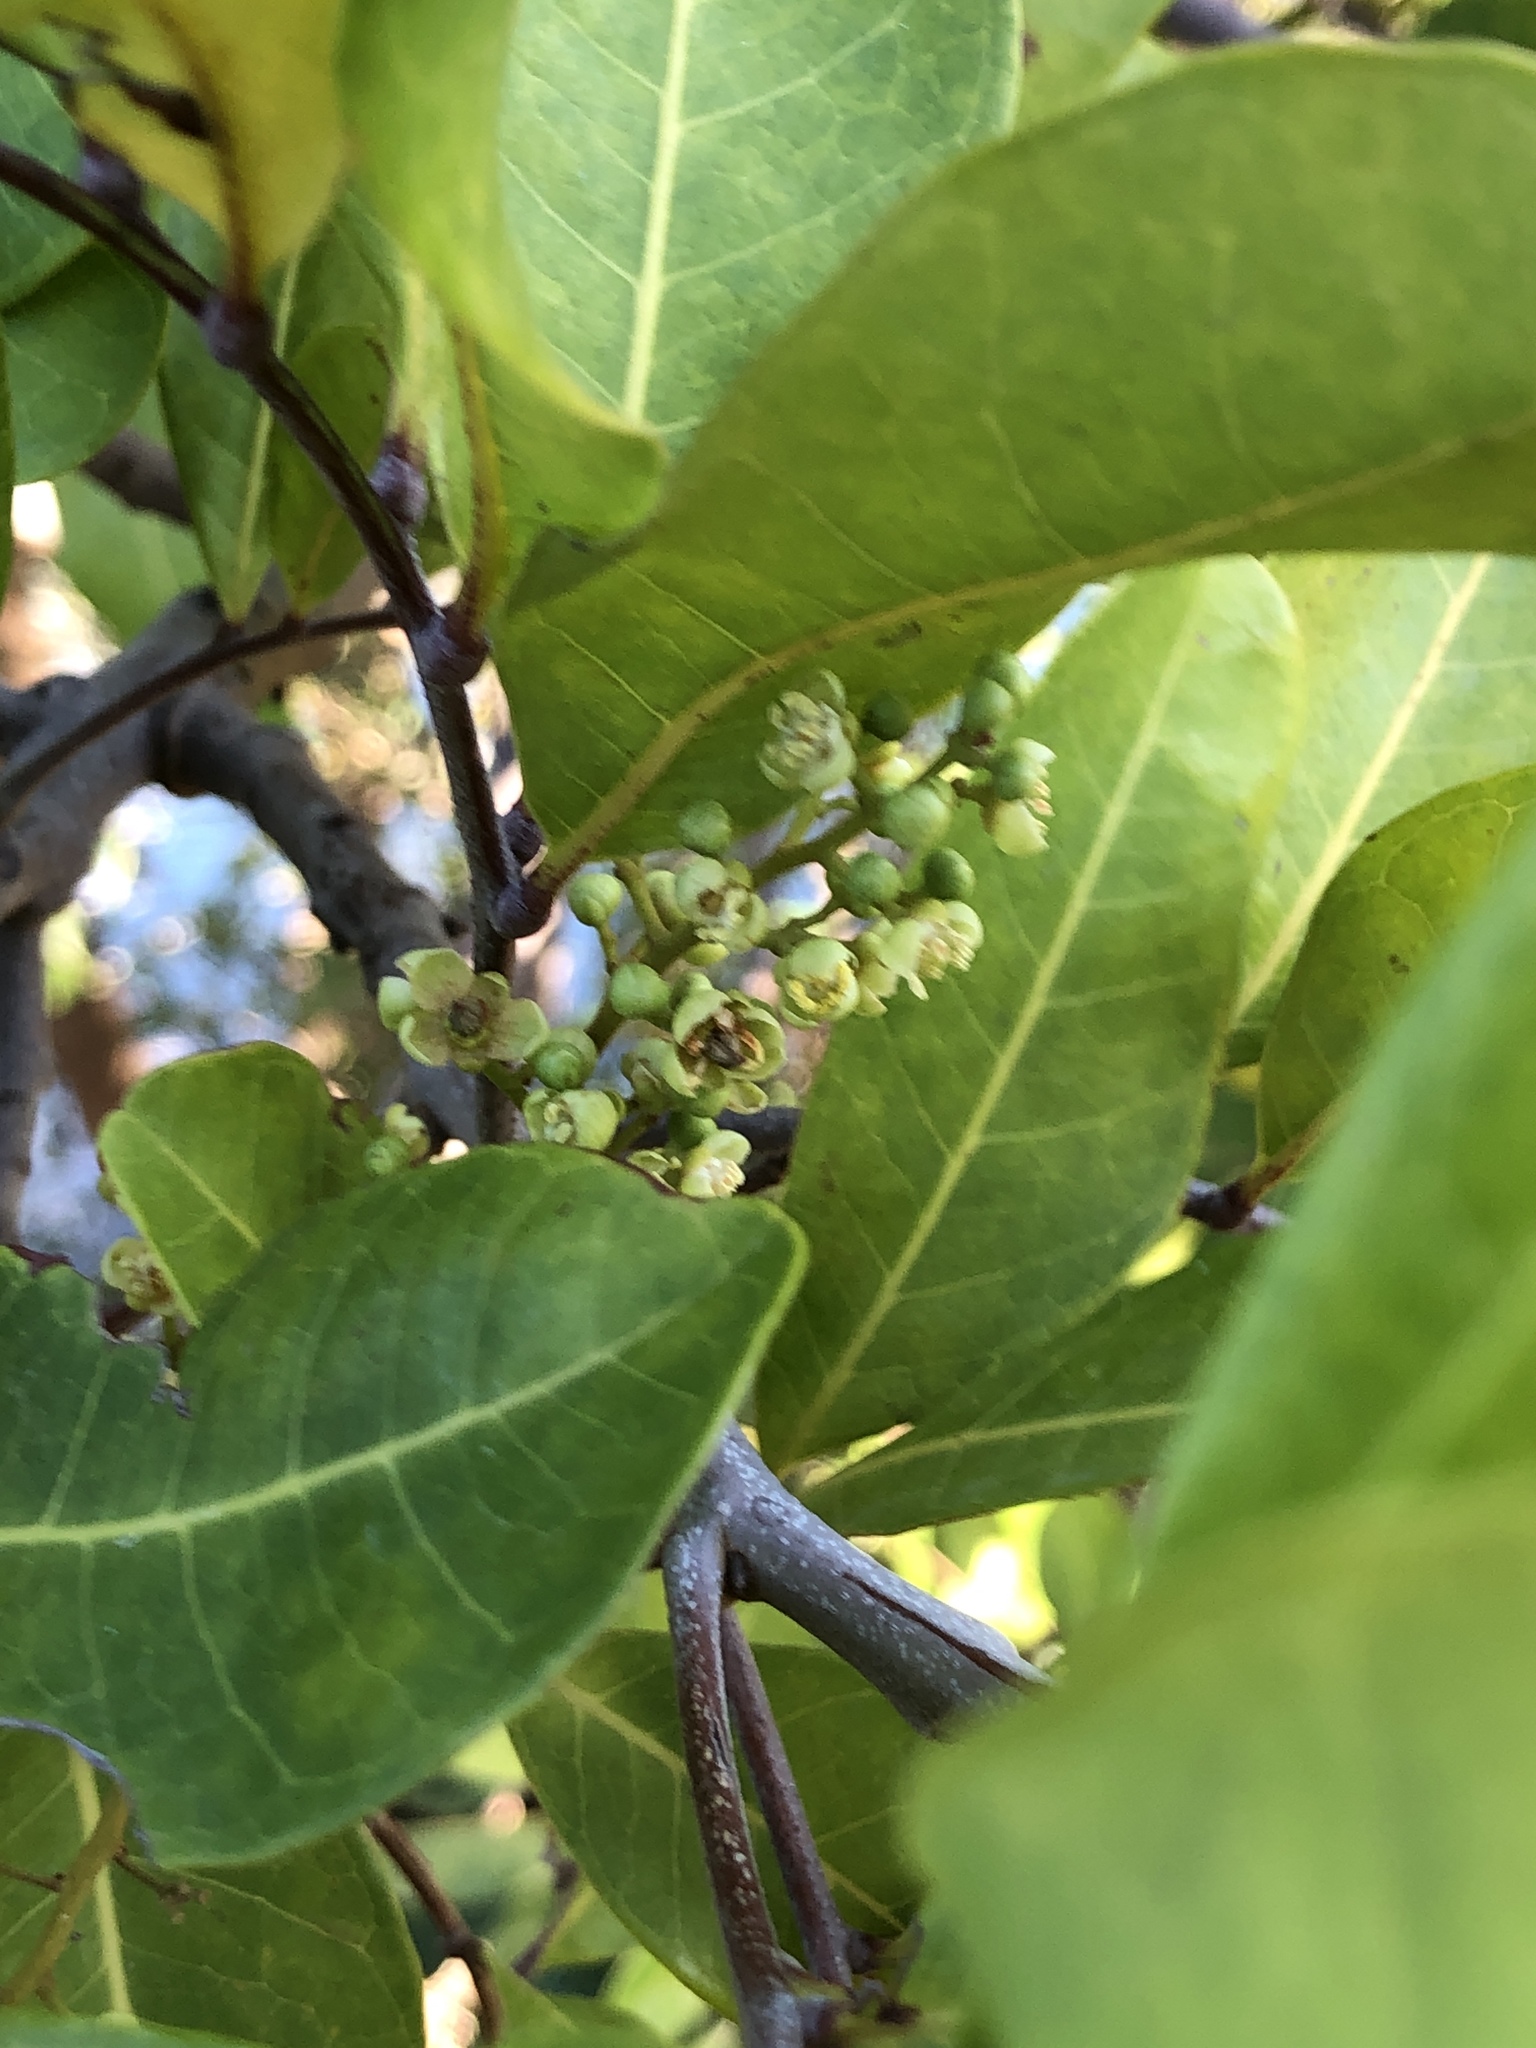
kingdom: Plantae
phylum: Tracheophyta
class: Magnoliopsida
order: Sapindales
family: Sapindaceae
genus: Cupaniopsis
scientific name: Cupaniopsis anacardioides
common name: Carrotwood
